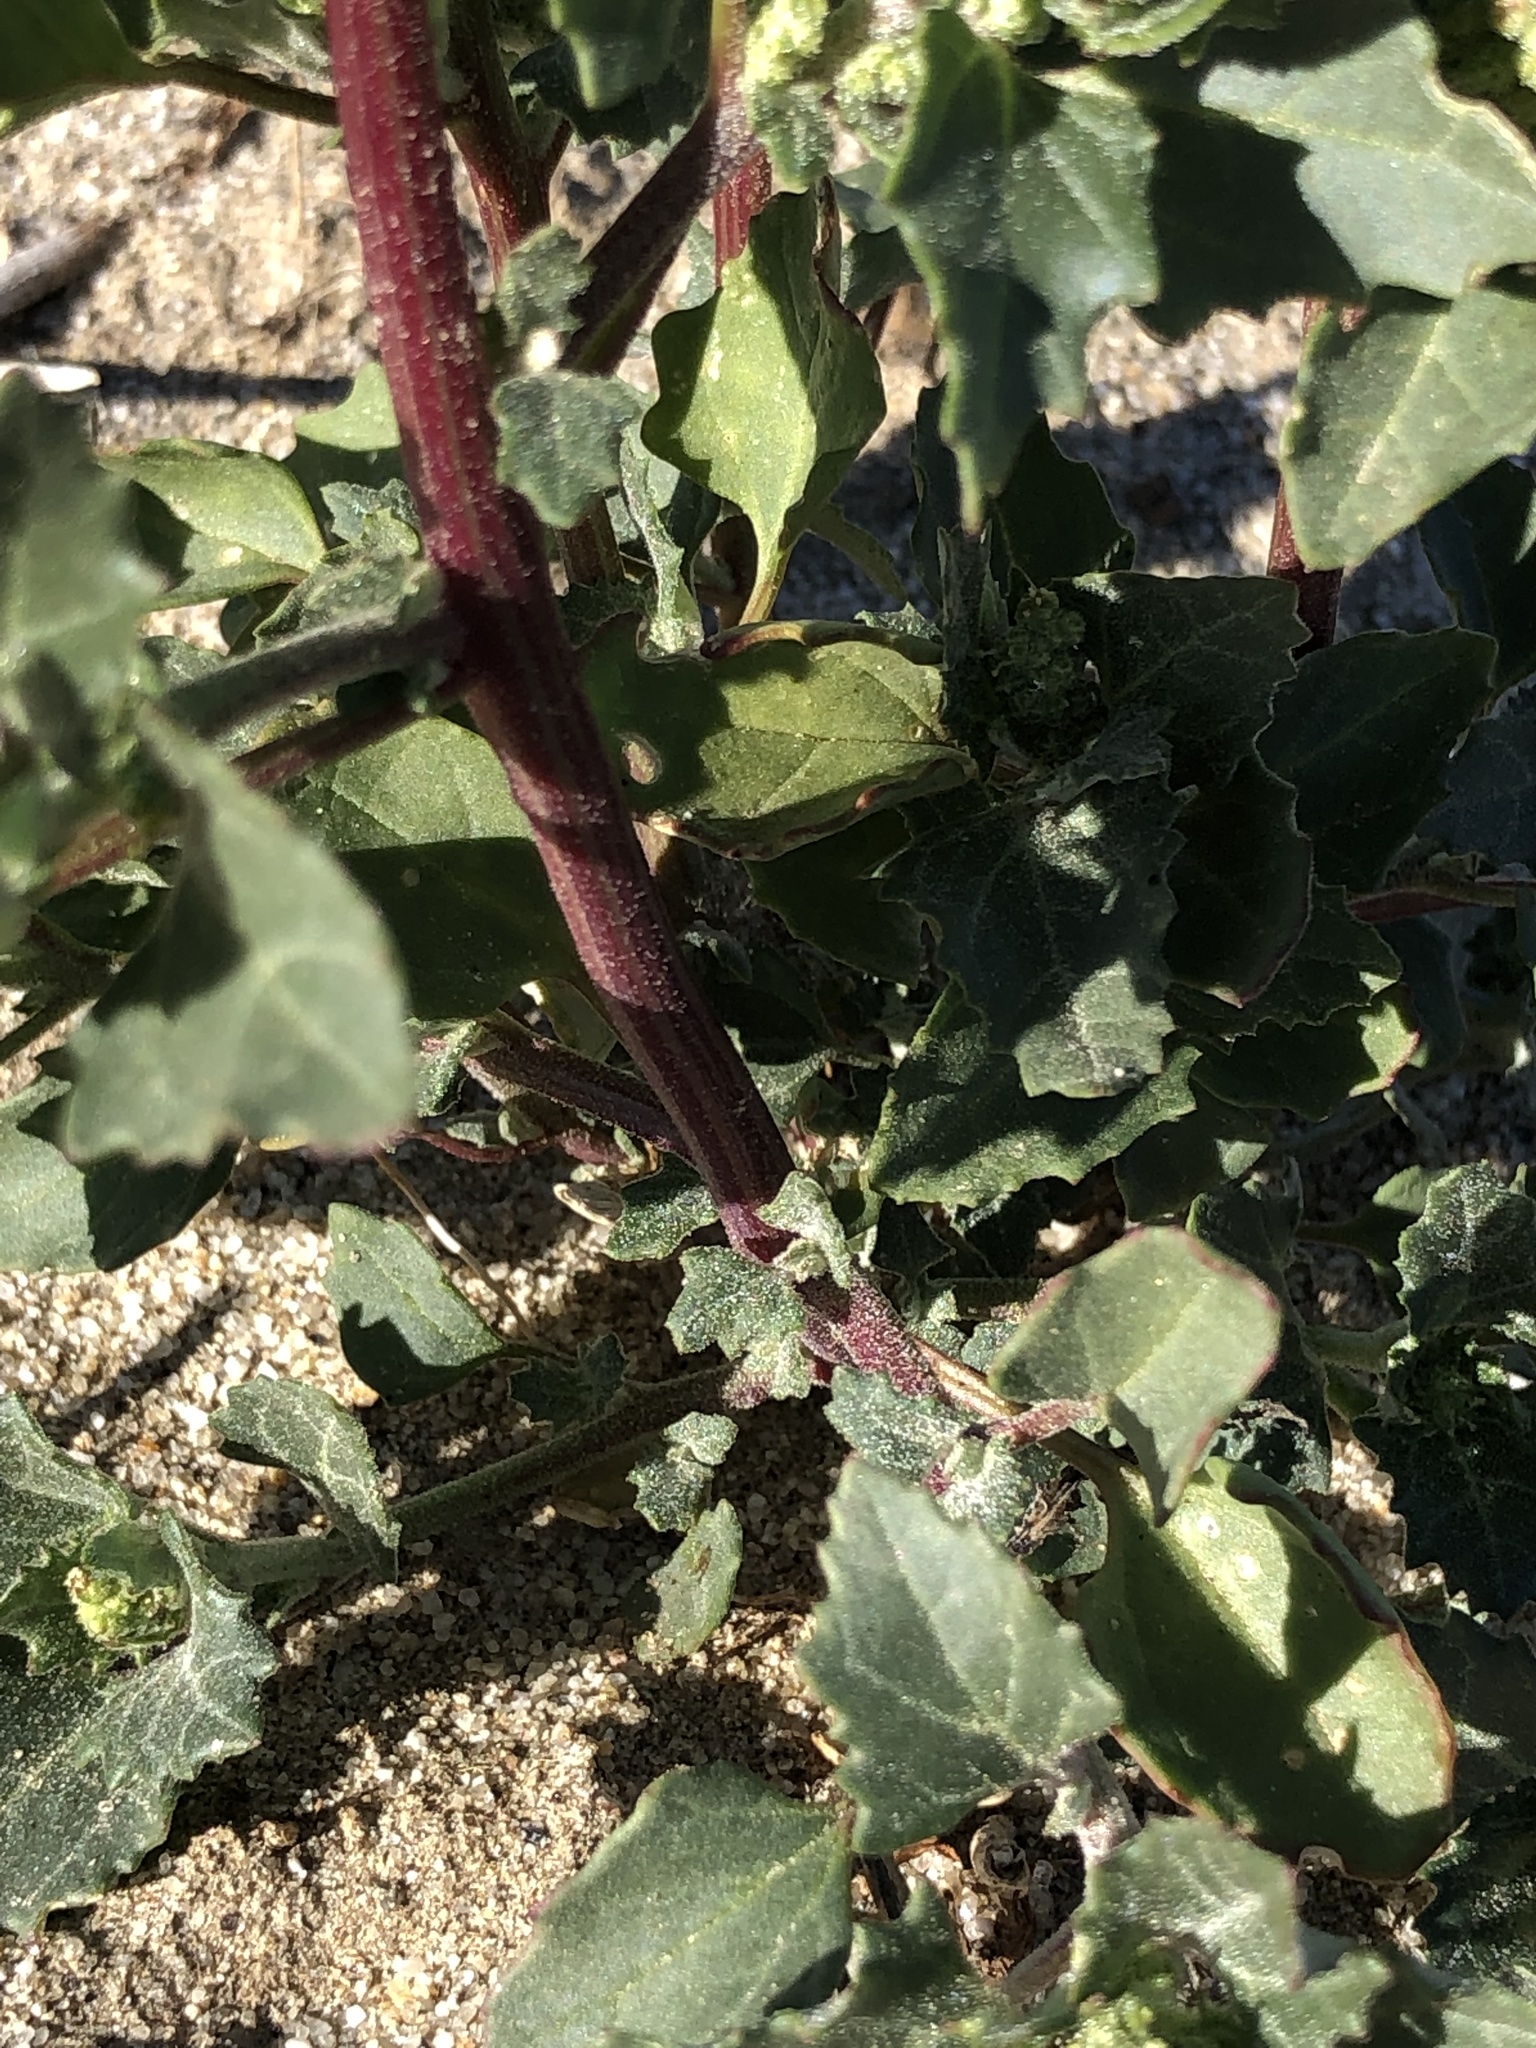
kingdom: Plantae
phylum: Tracheophyta
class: Magnoliopsida
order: Caryophyllales
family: Amaranthaceae
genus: Chenopodiastrum
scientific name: Chenopodiastrum murale
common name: Sowbane
